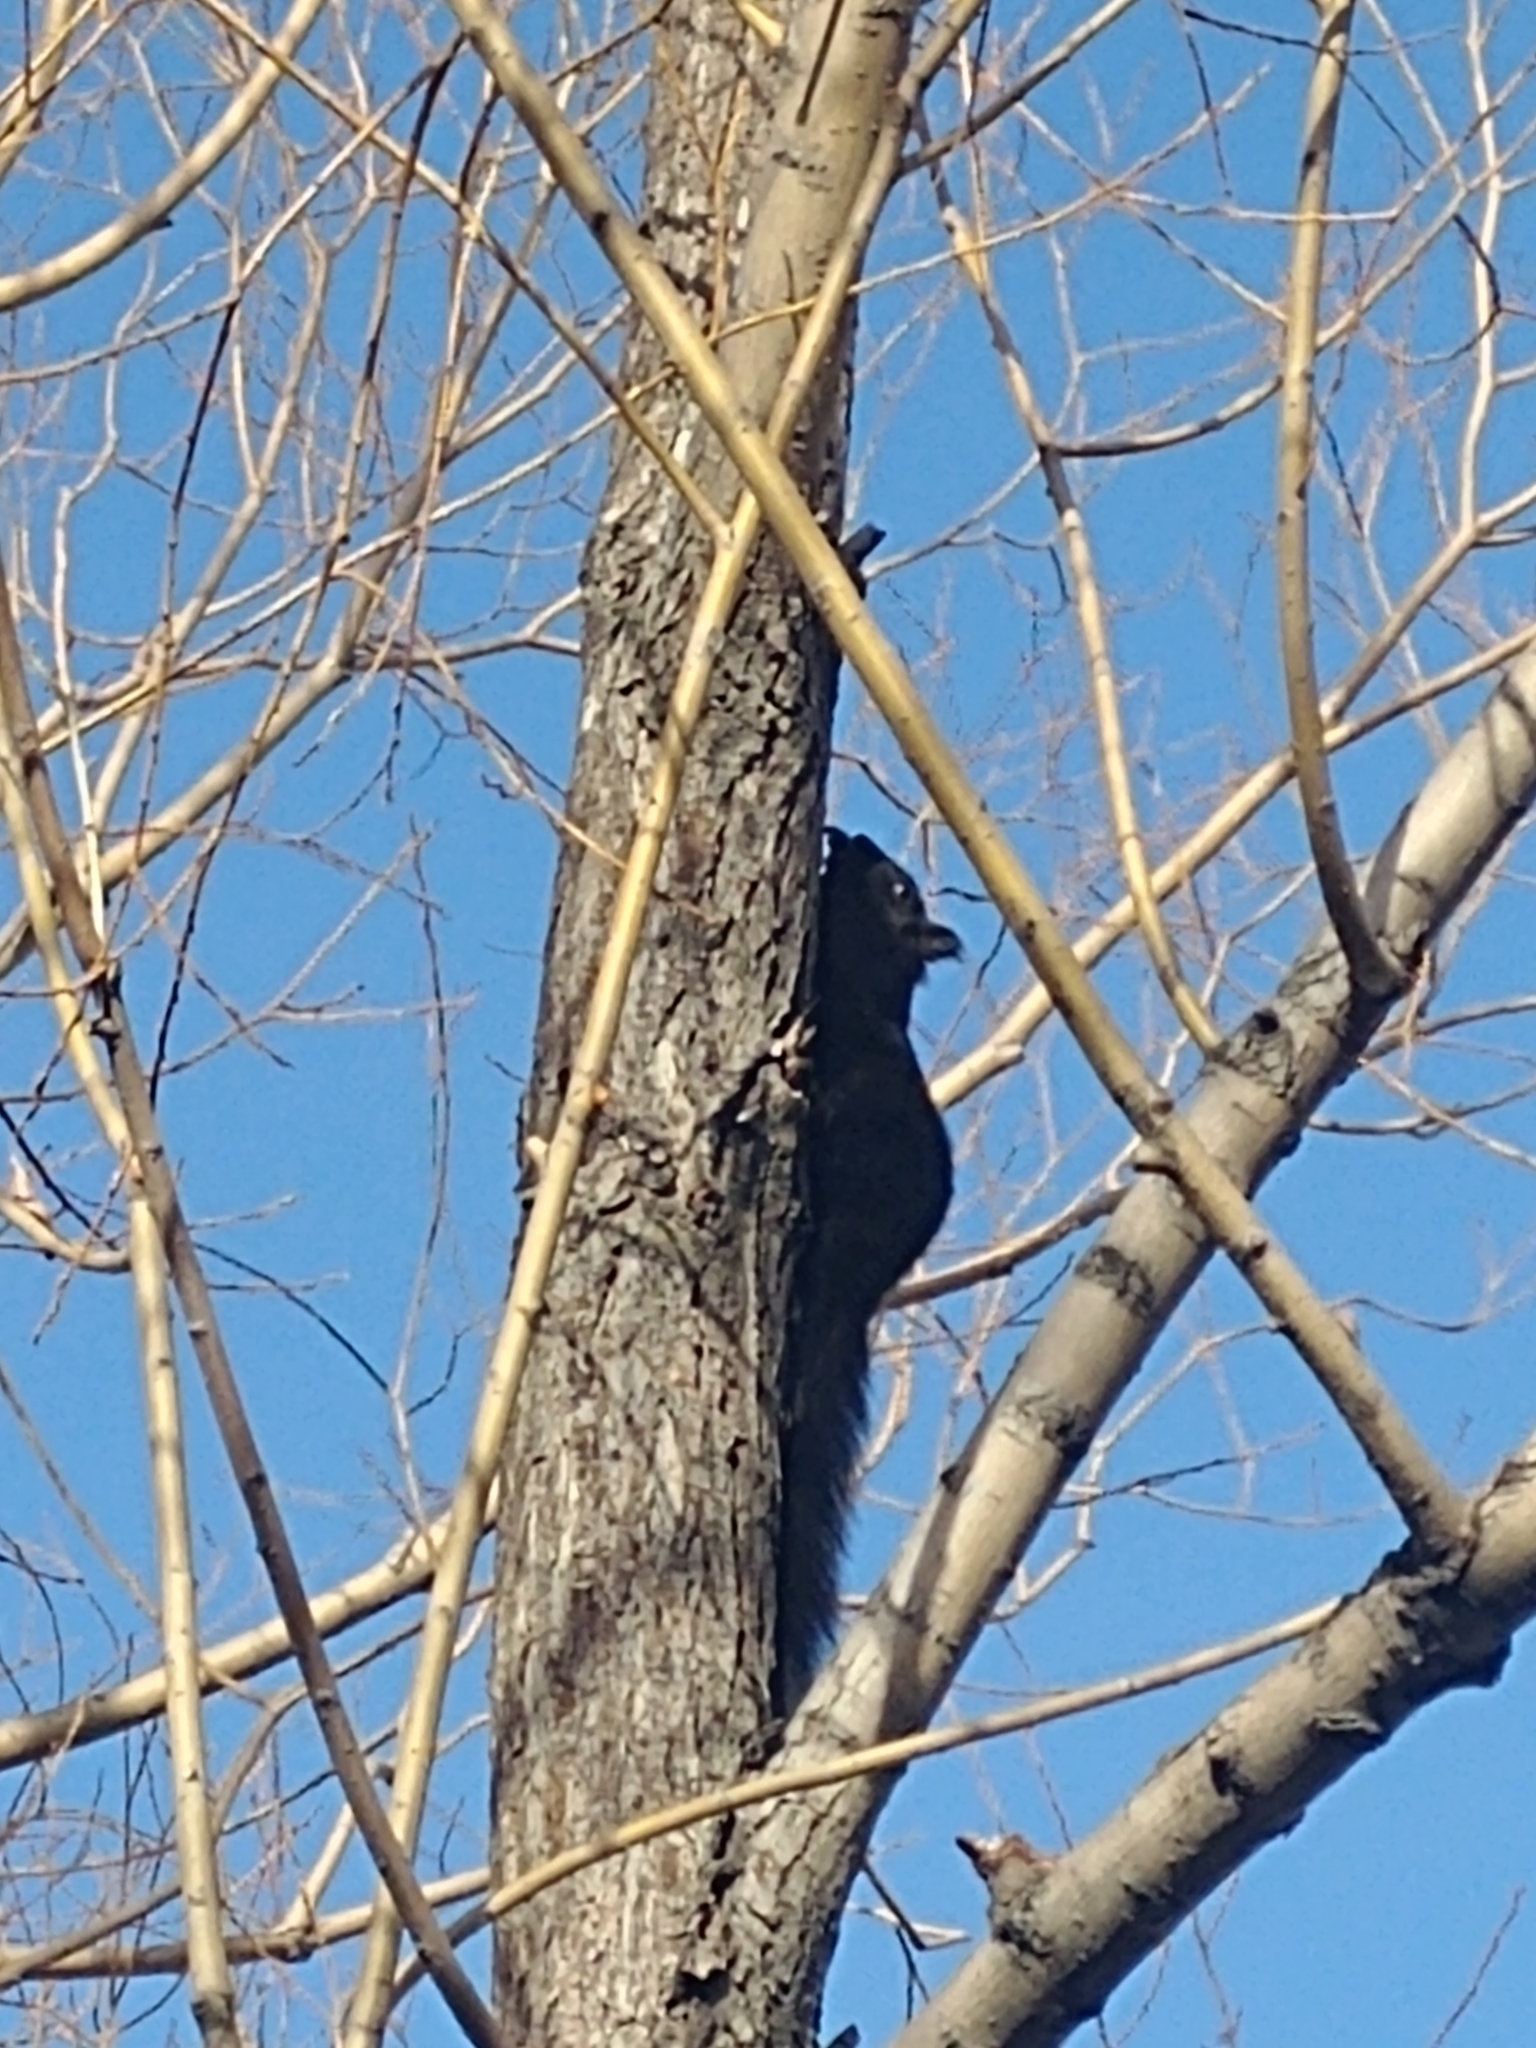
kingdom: Animalia
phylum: Chordata
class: Mammalia
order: Rodentia
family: Sciuridae
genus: Sciurus
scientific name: Sciurus carolinensis
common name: Eastern gray squirrel
